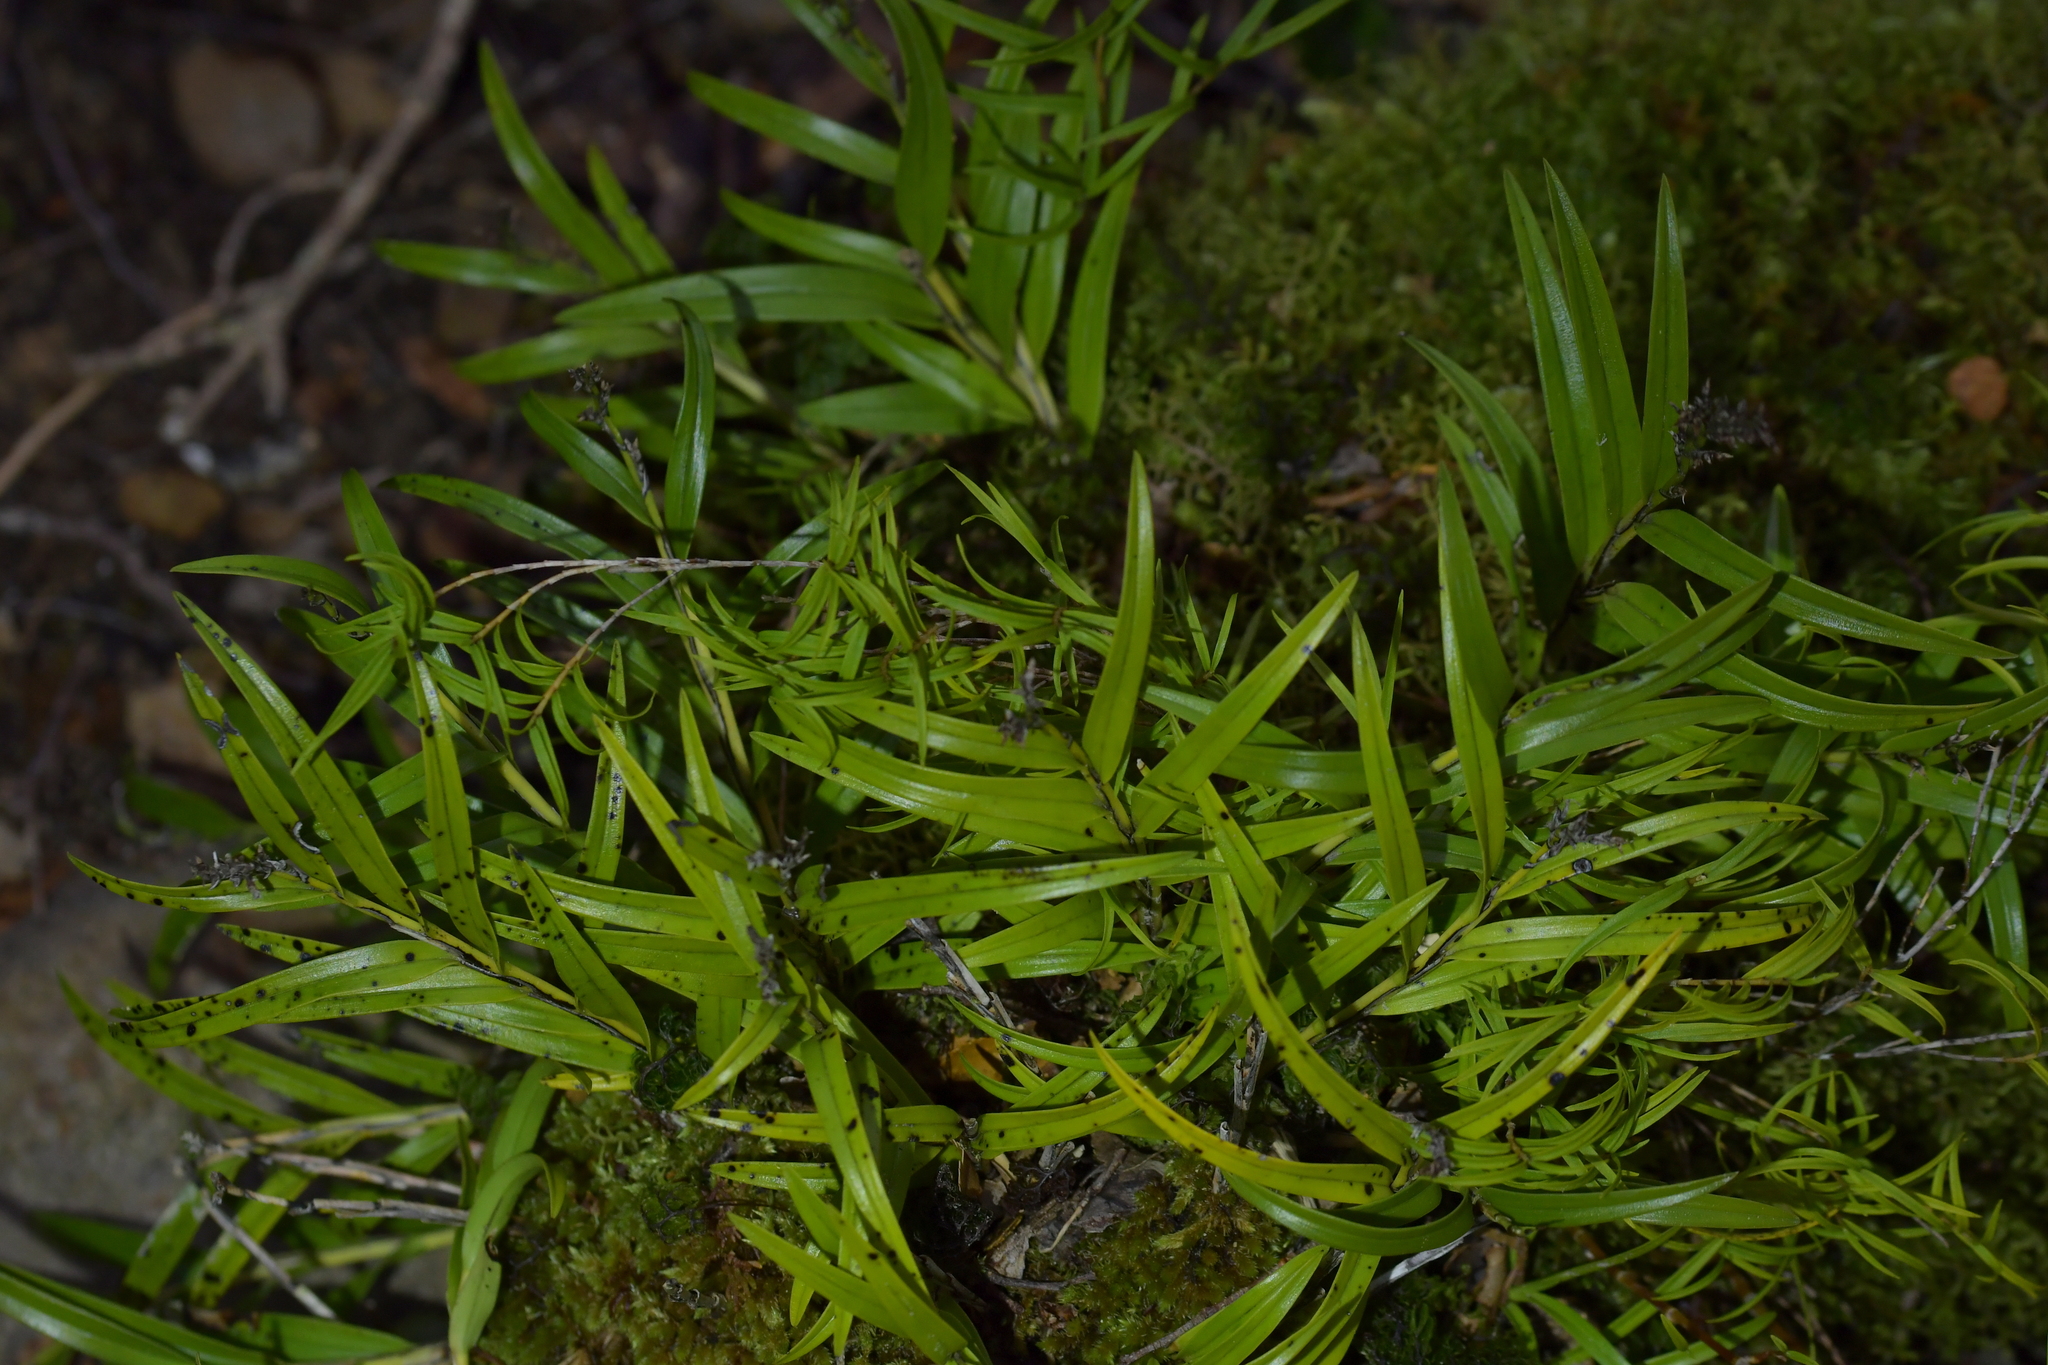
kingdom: Plantae
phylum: Tracheophyta
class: Liliopsida
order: Asparagales
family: Orchidaceae
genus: Earina
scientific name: Earina autumnalis
